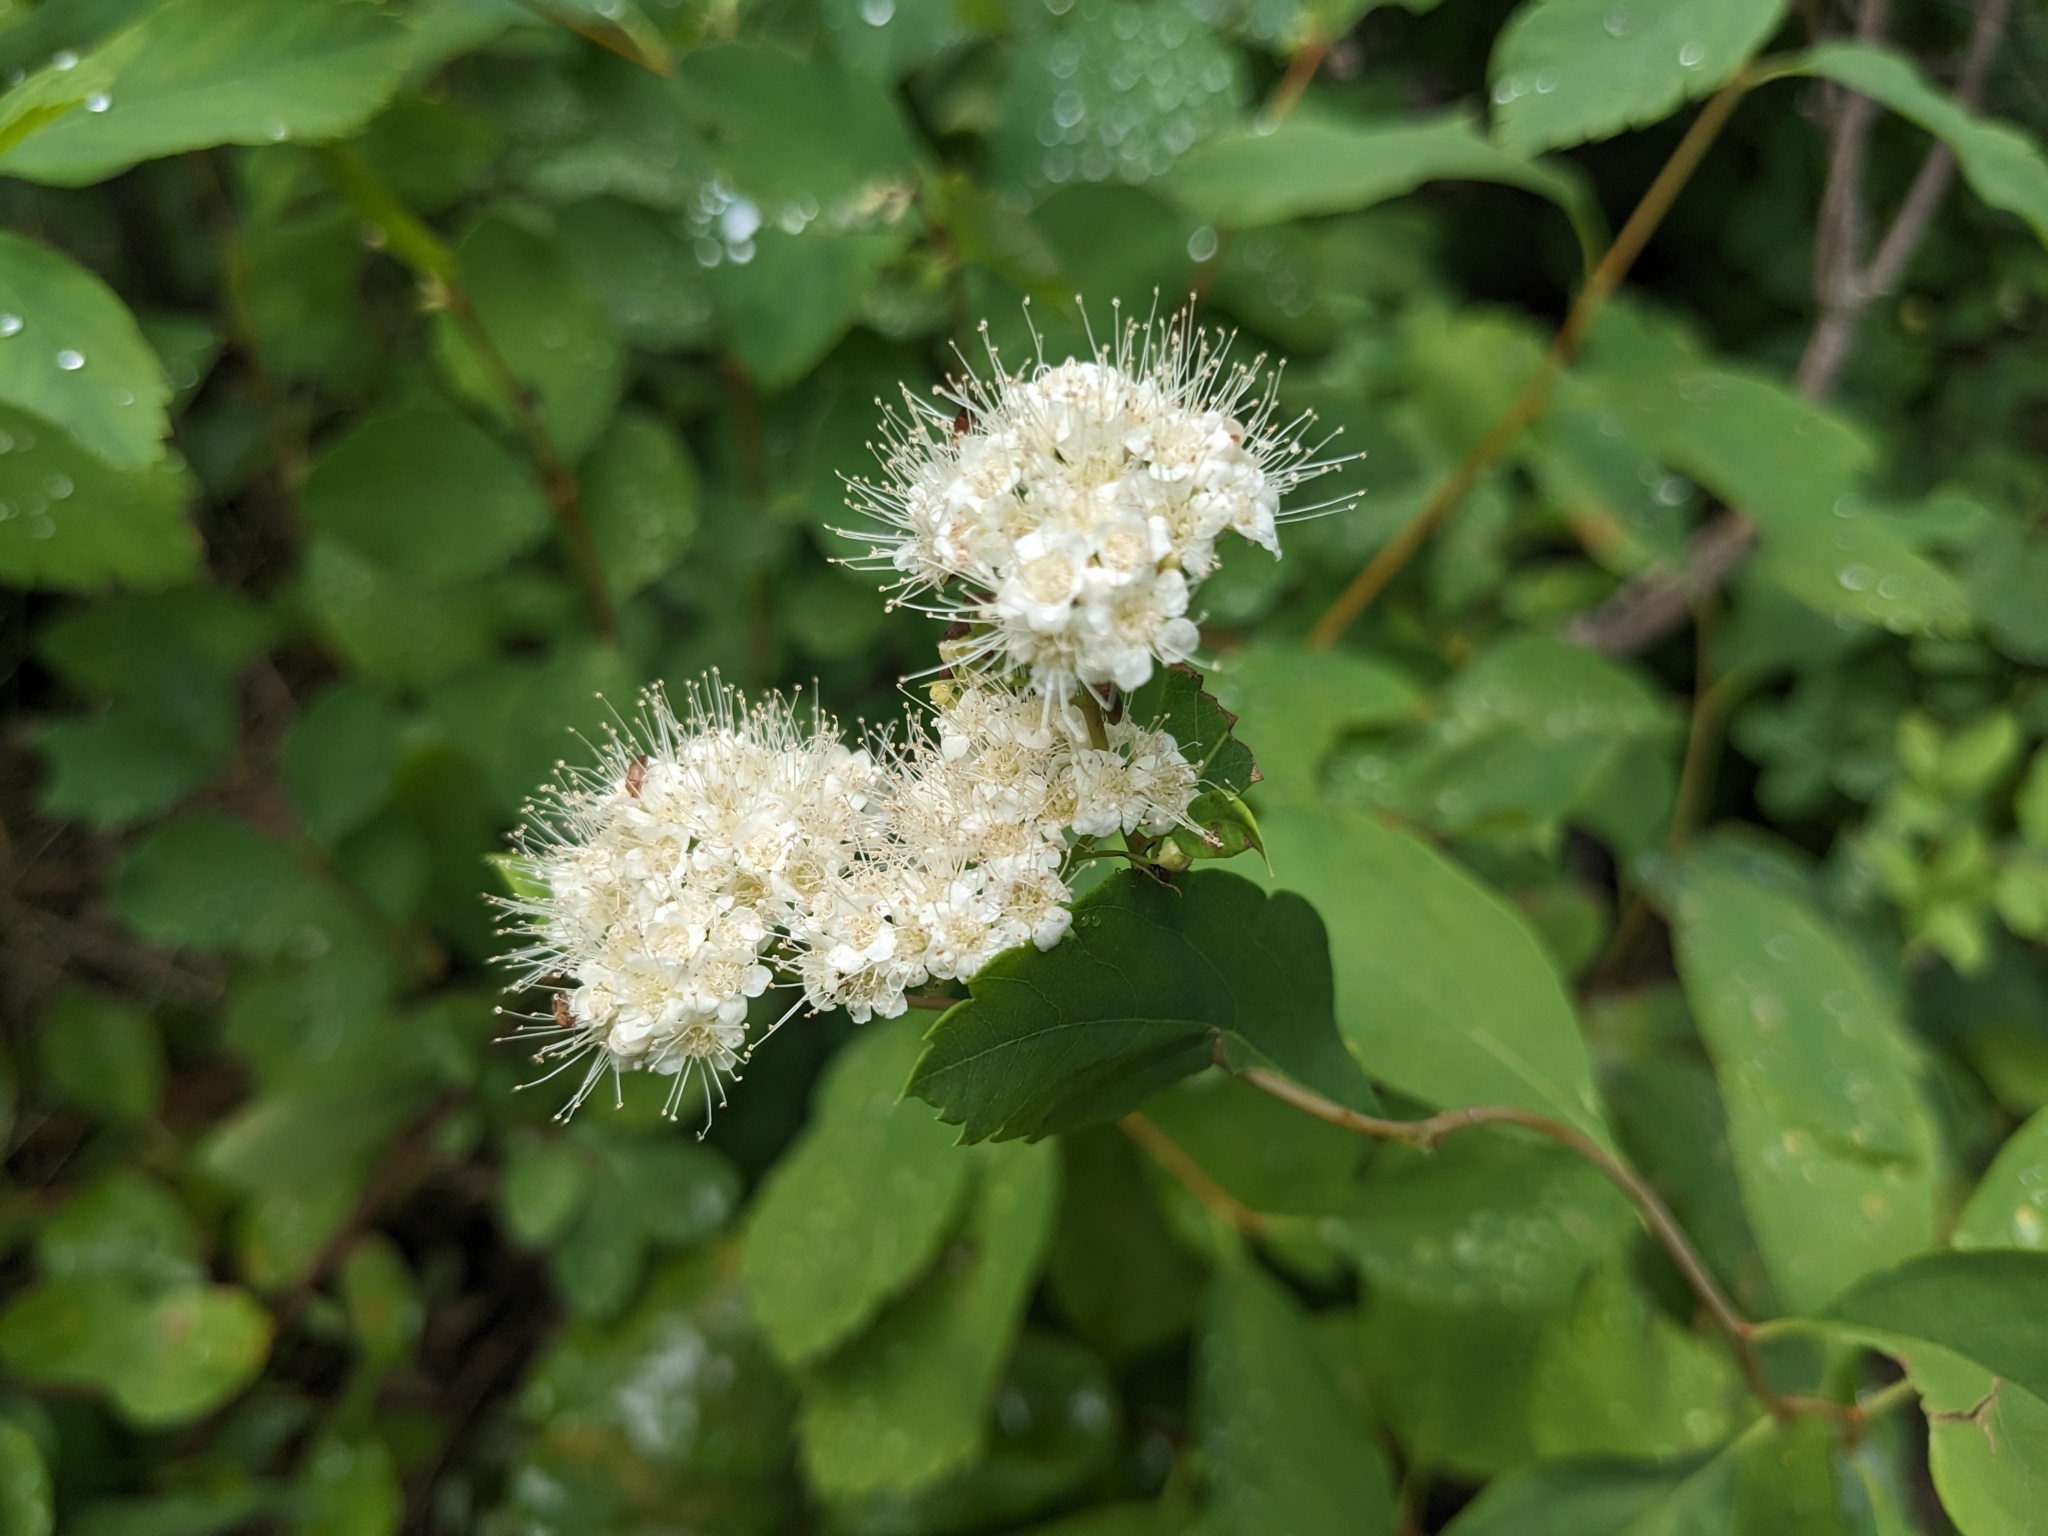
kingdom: Plantae
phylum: Tracheophyta
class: Magnoliopsida
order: Rosales
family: Rosaceae
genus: Spiraea
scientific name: Spiraea lucida
